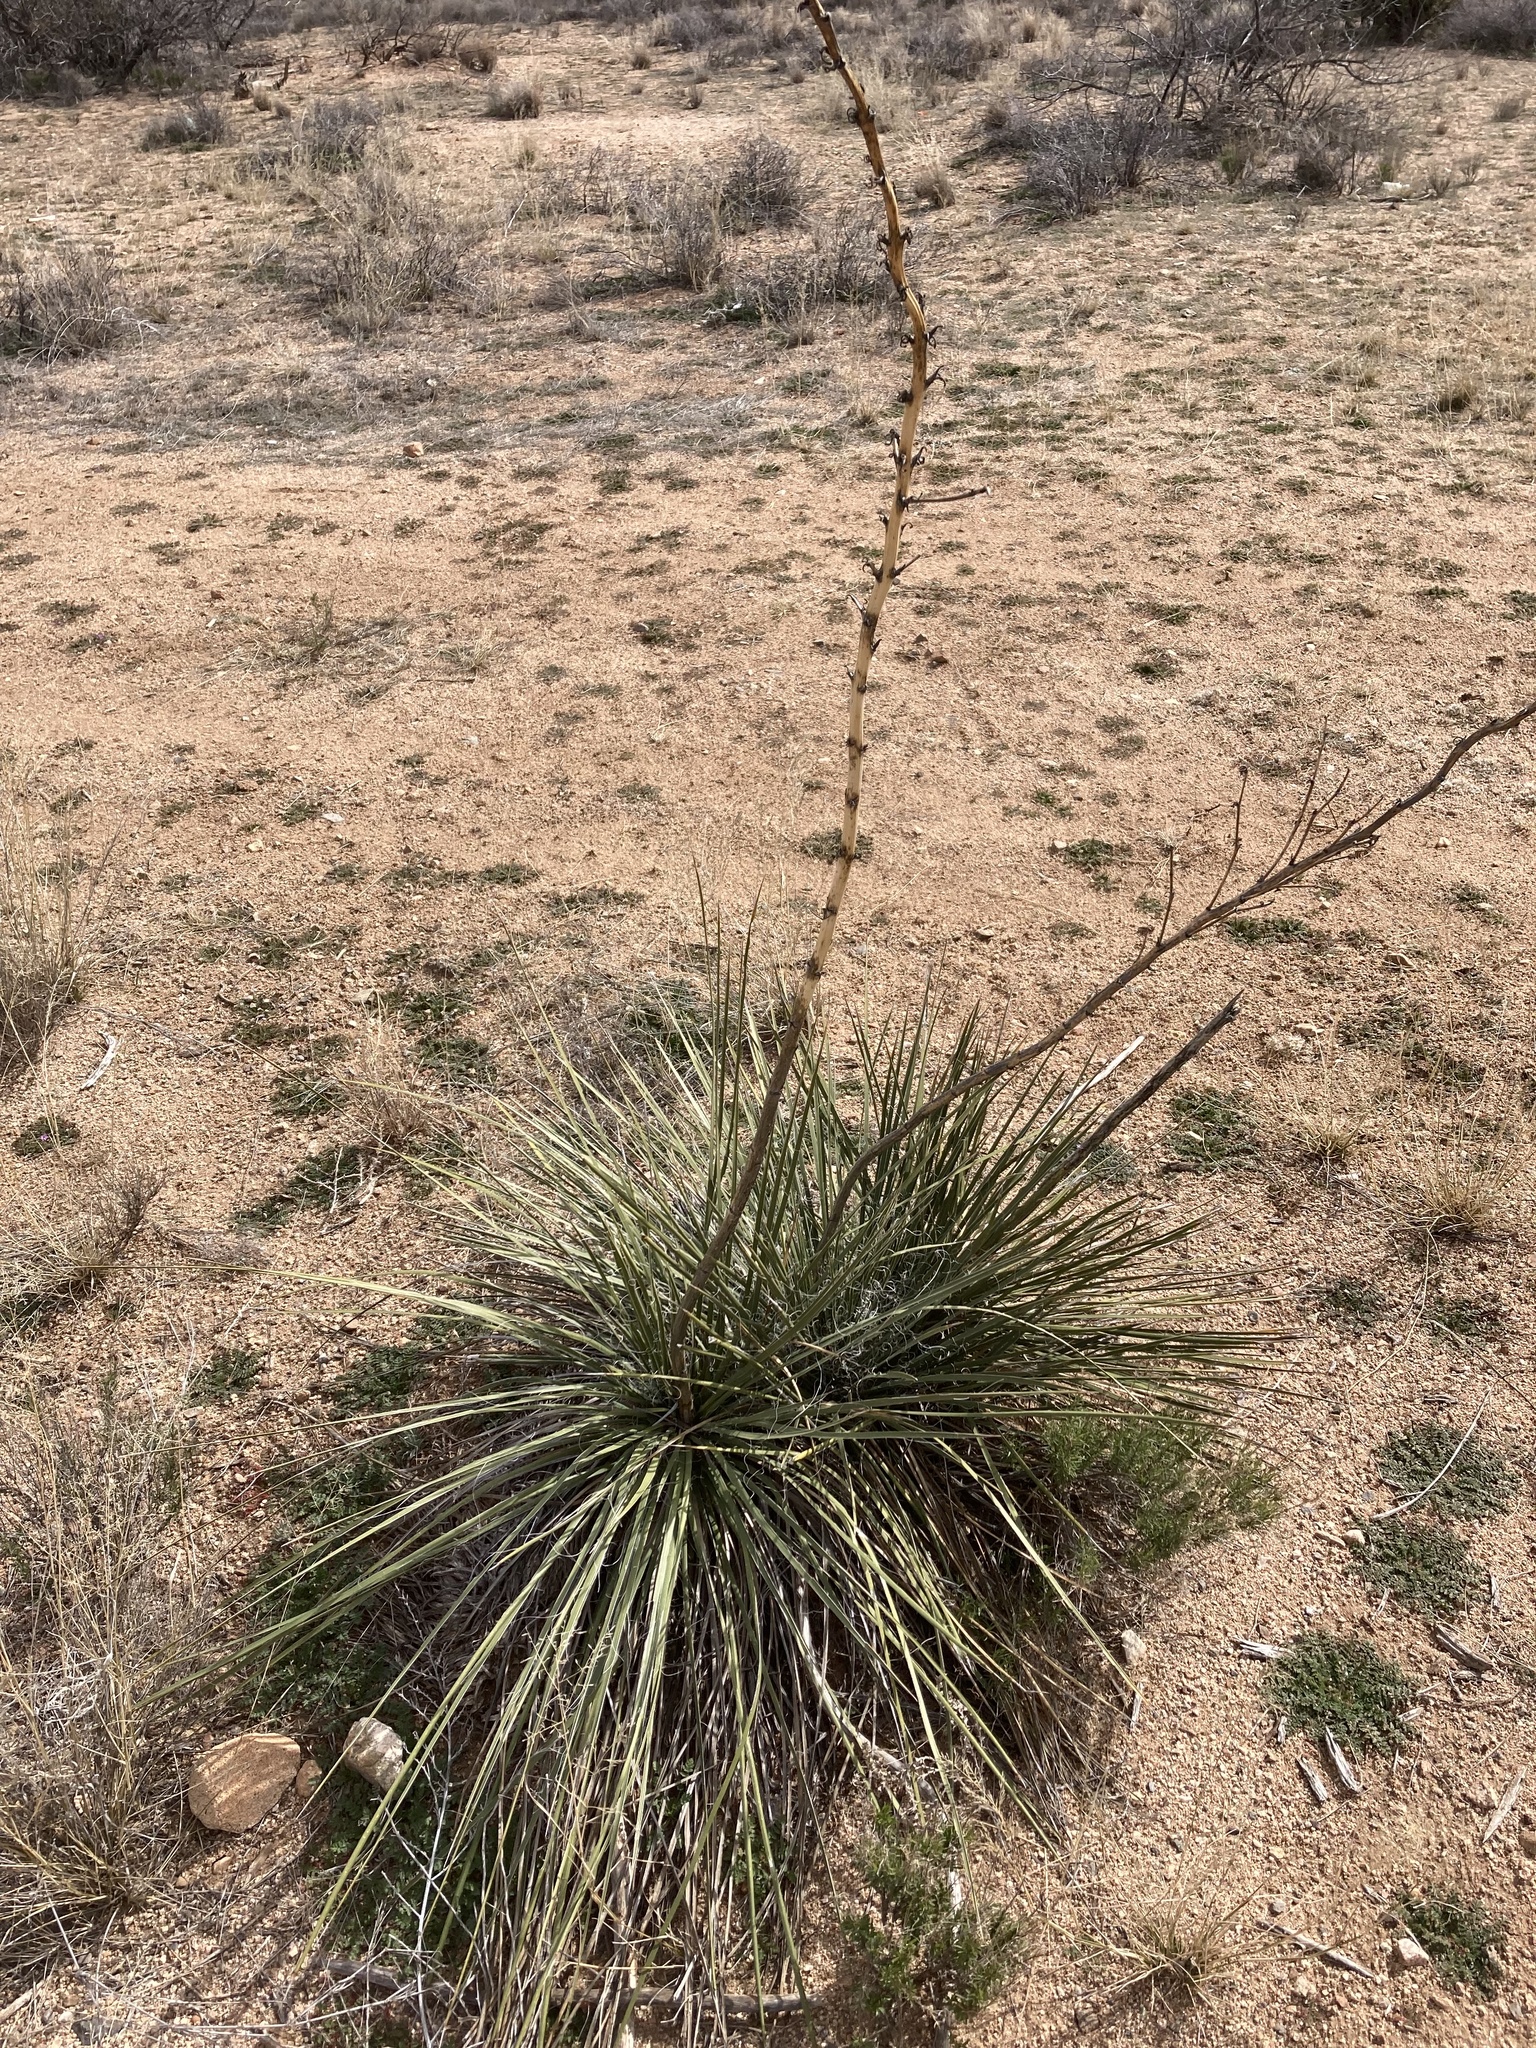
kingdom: Plantae
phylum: Tracheophyta
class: Liliopsida
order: Asparagales
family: Asparagaceae
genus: Yucca
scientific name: Yucca elata
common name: Palmella
